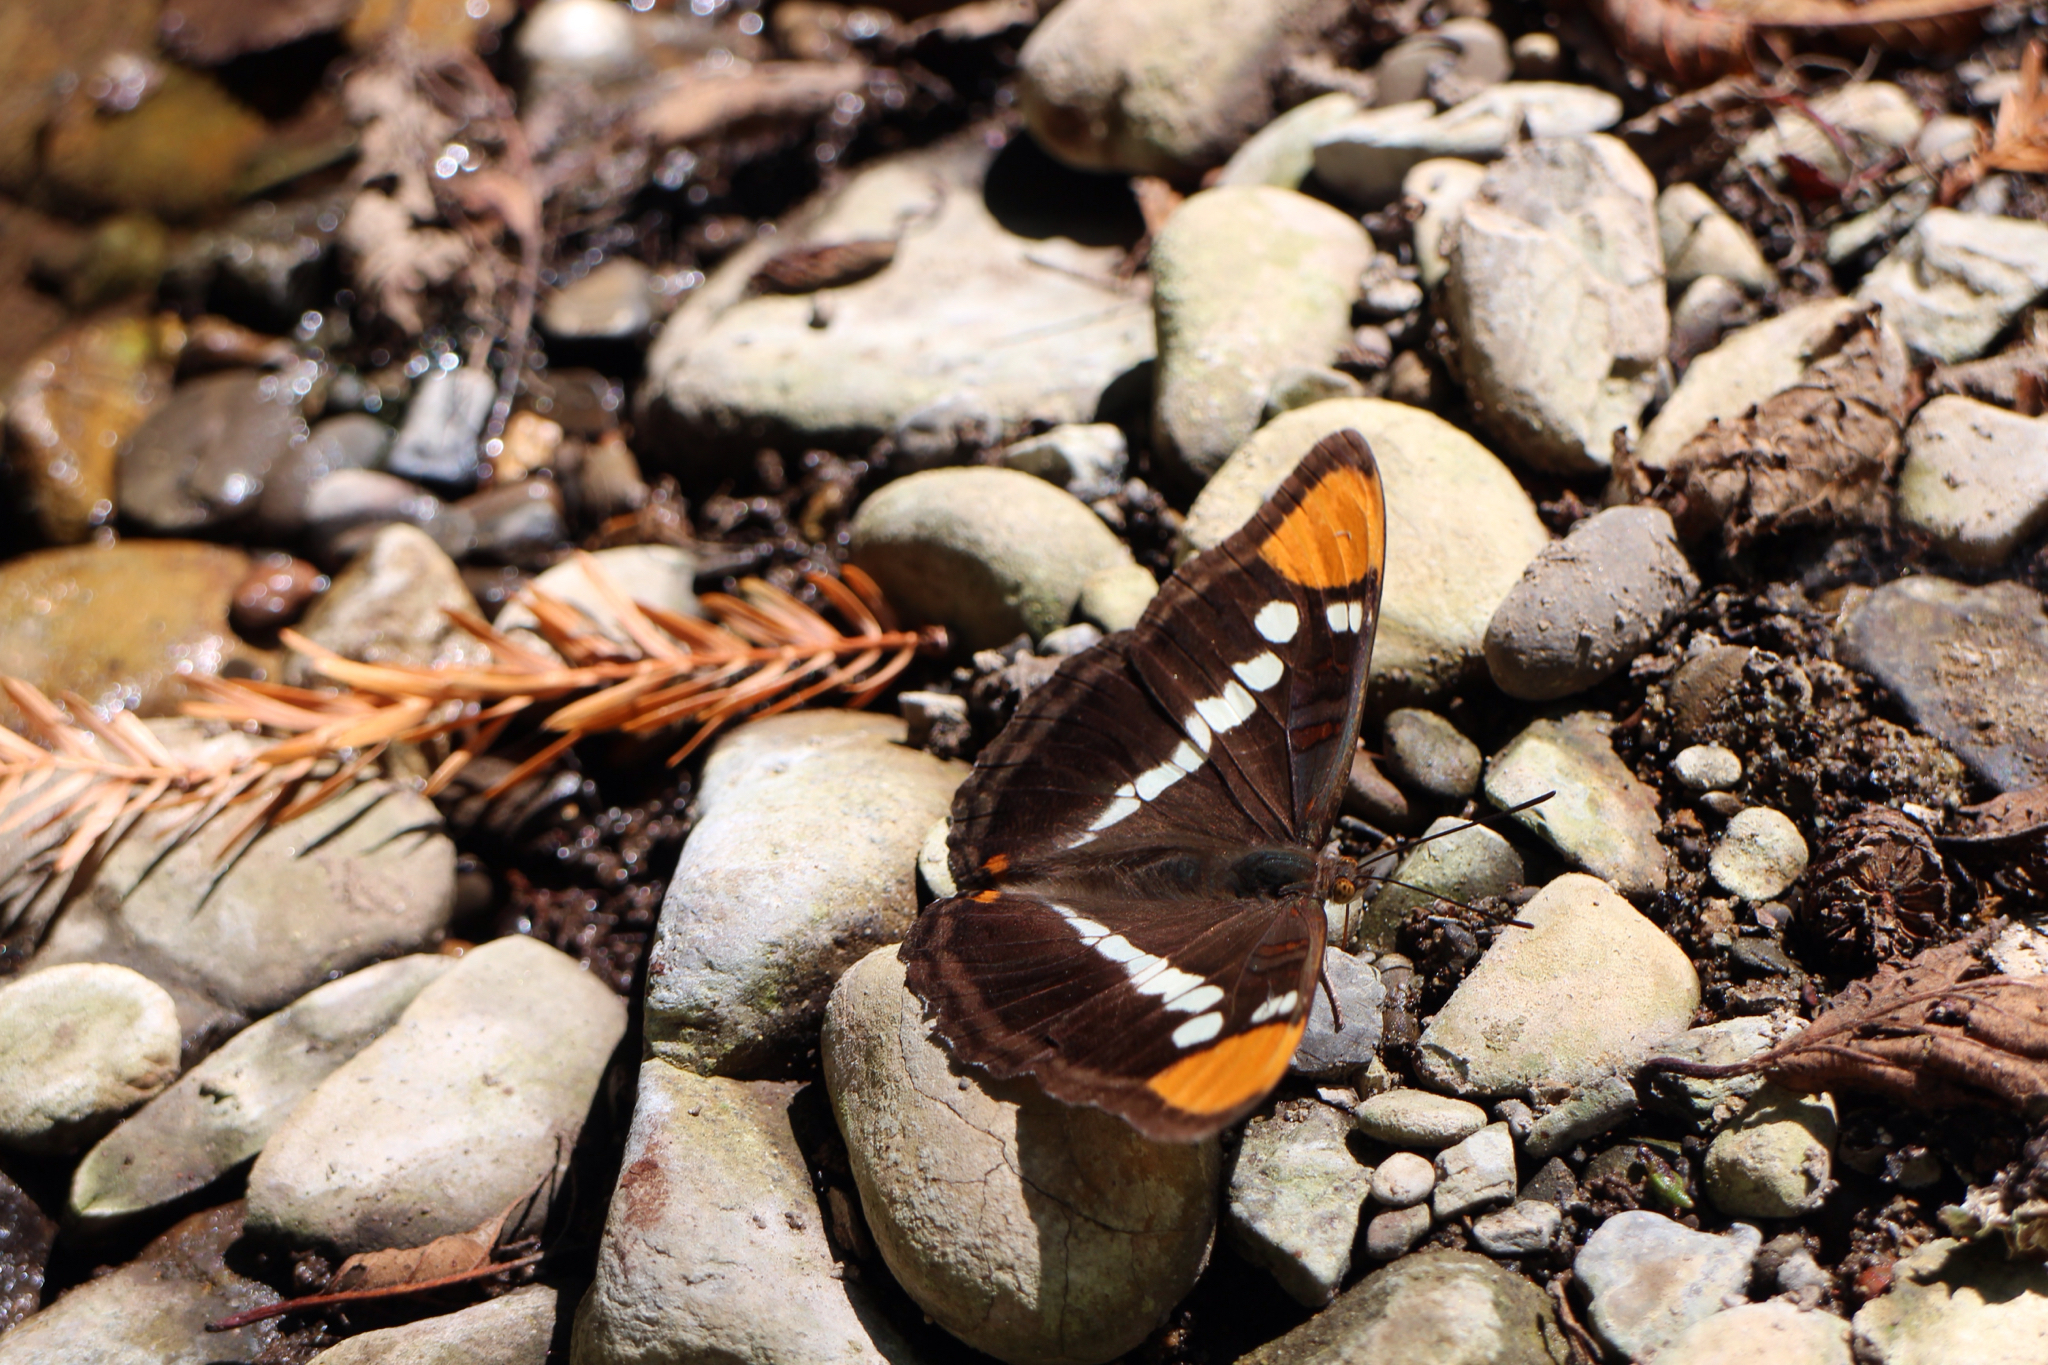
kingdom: Animalia
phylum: Arthropoda
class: Insecta
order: Lepidoptera
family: Nymphalidae
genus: Limenitis
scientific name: Limenitis bredowii
